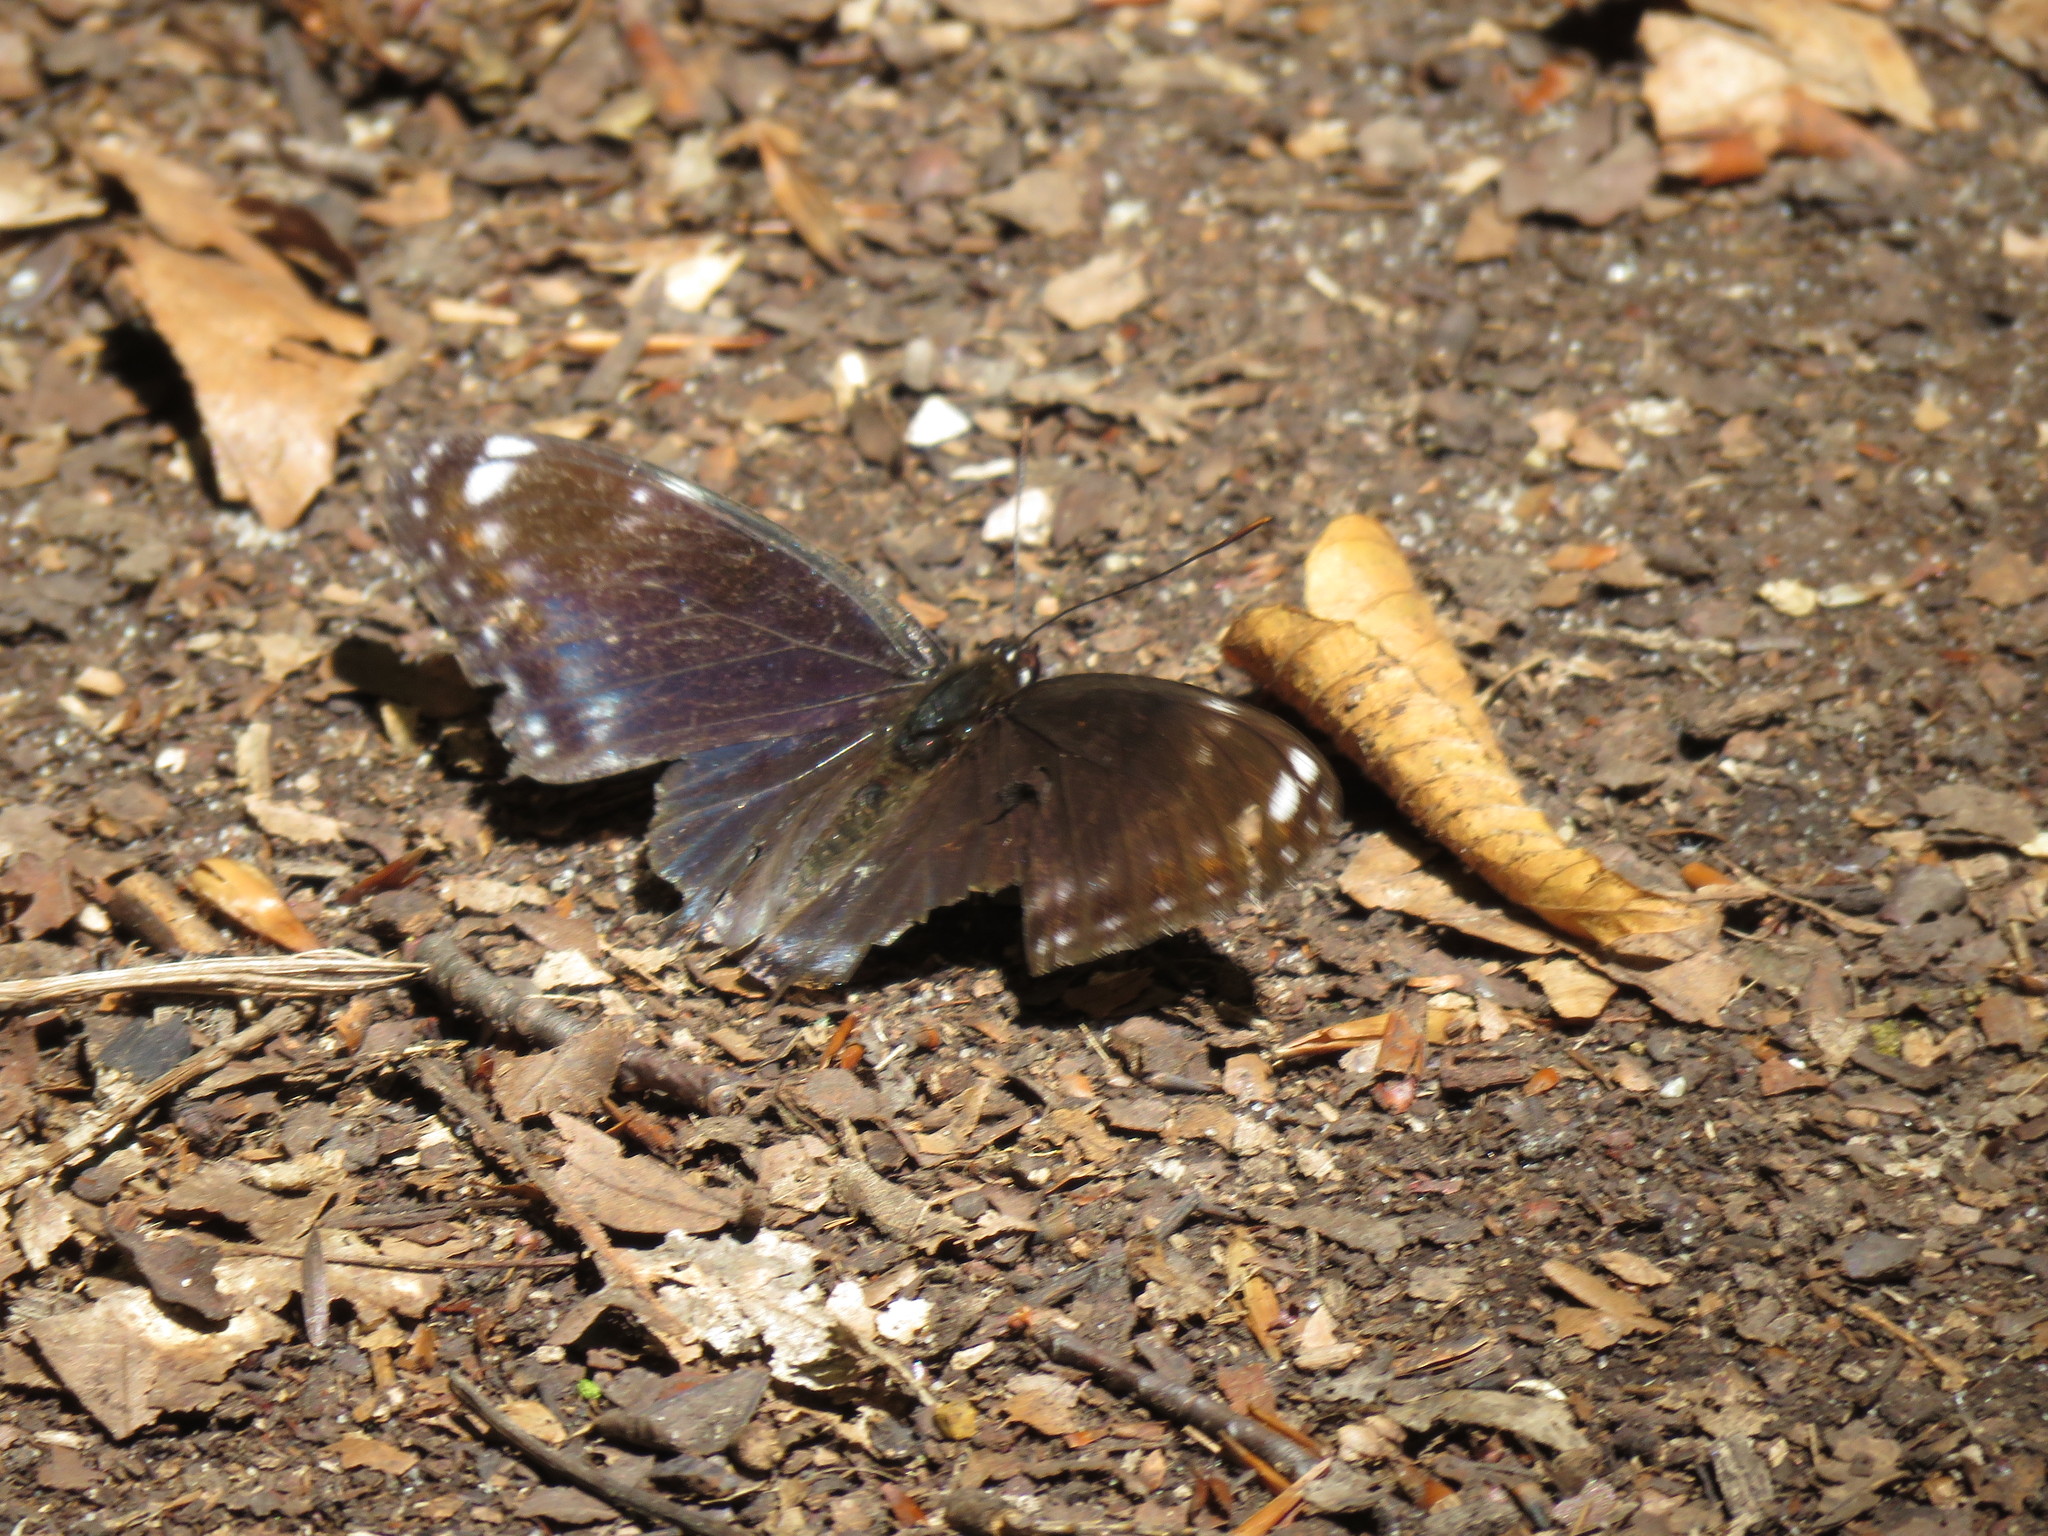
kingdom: Animalia
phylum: Arthropoda
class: Insecta
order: Lepidoptera
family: Nymphalidae
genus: Limenitis
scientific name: Limenitis arthemis
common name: Red-spotted admiral
